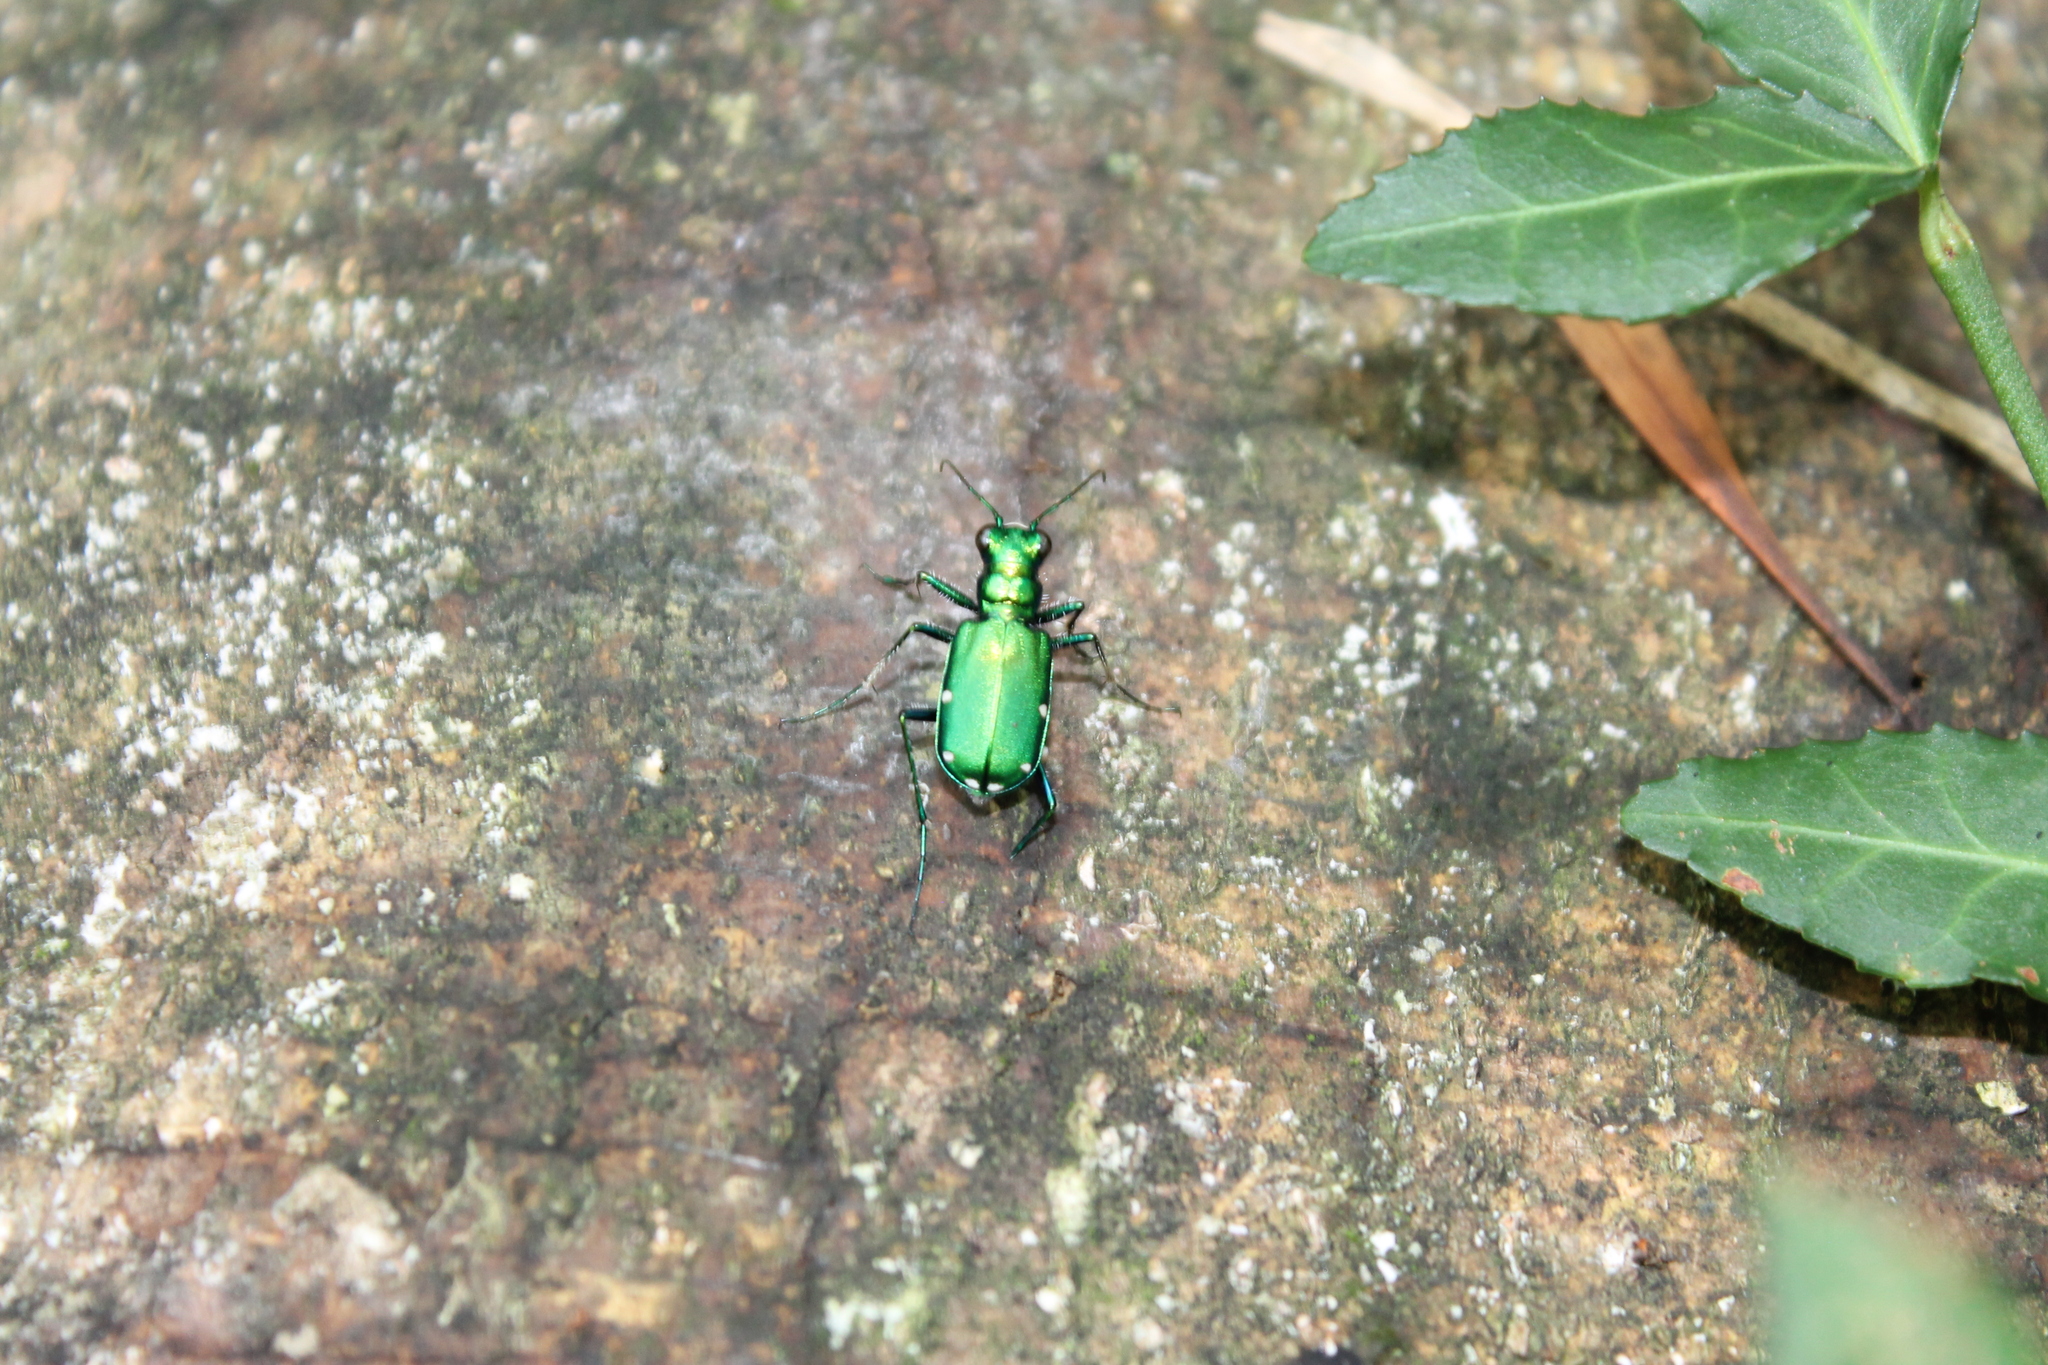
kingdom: Animalia
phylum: Arthropoda
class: Insecta
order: Coleoptera
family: Carabidae
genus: Cicindela
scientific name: Cicindela sexguttata
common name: Six-spotted tiger beetle
